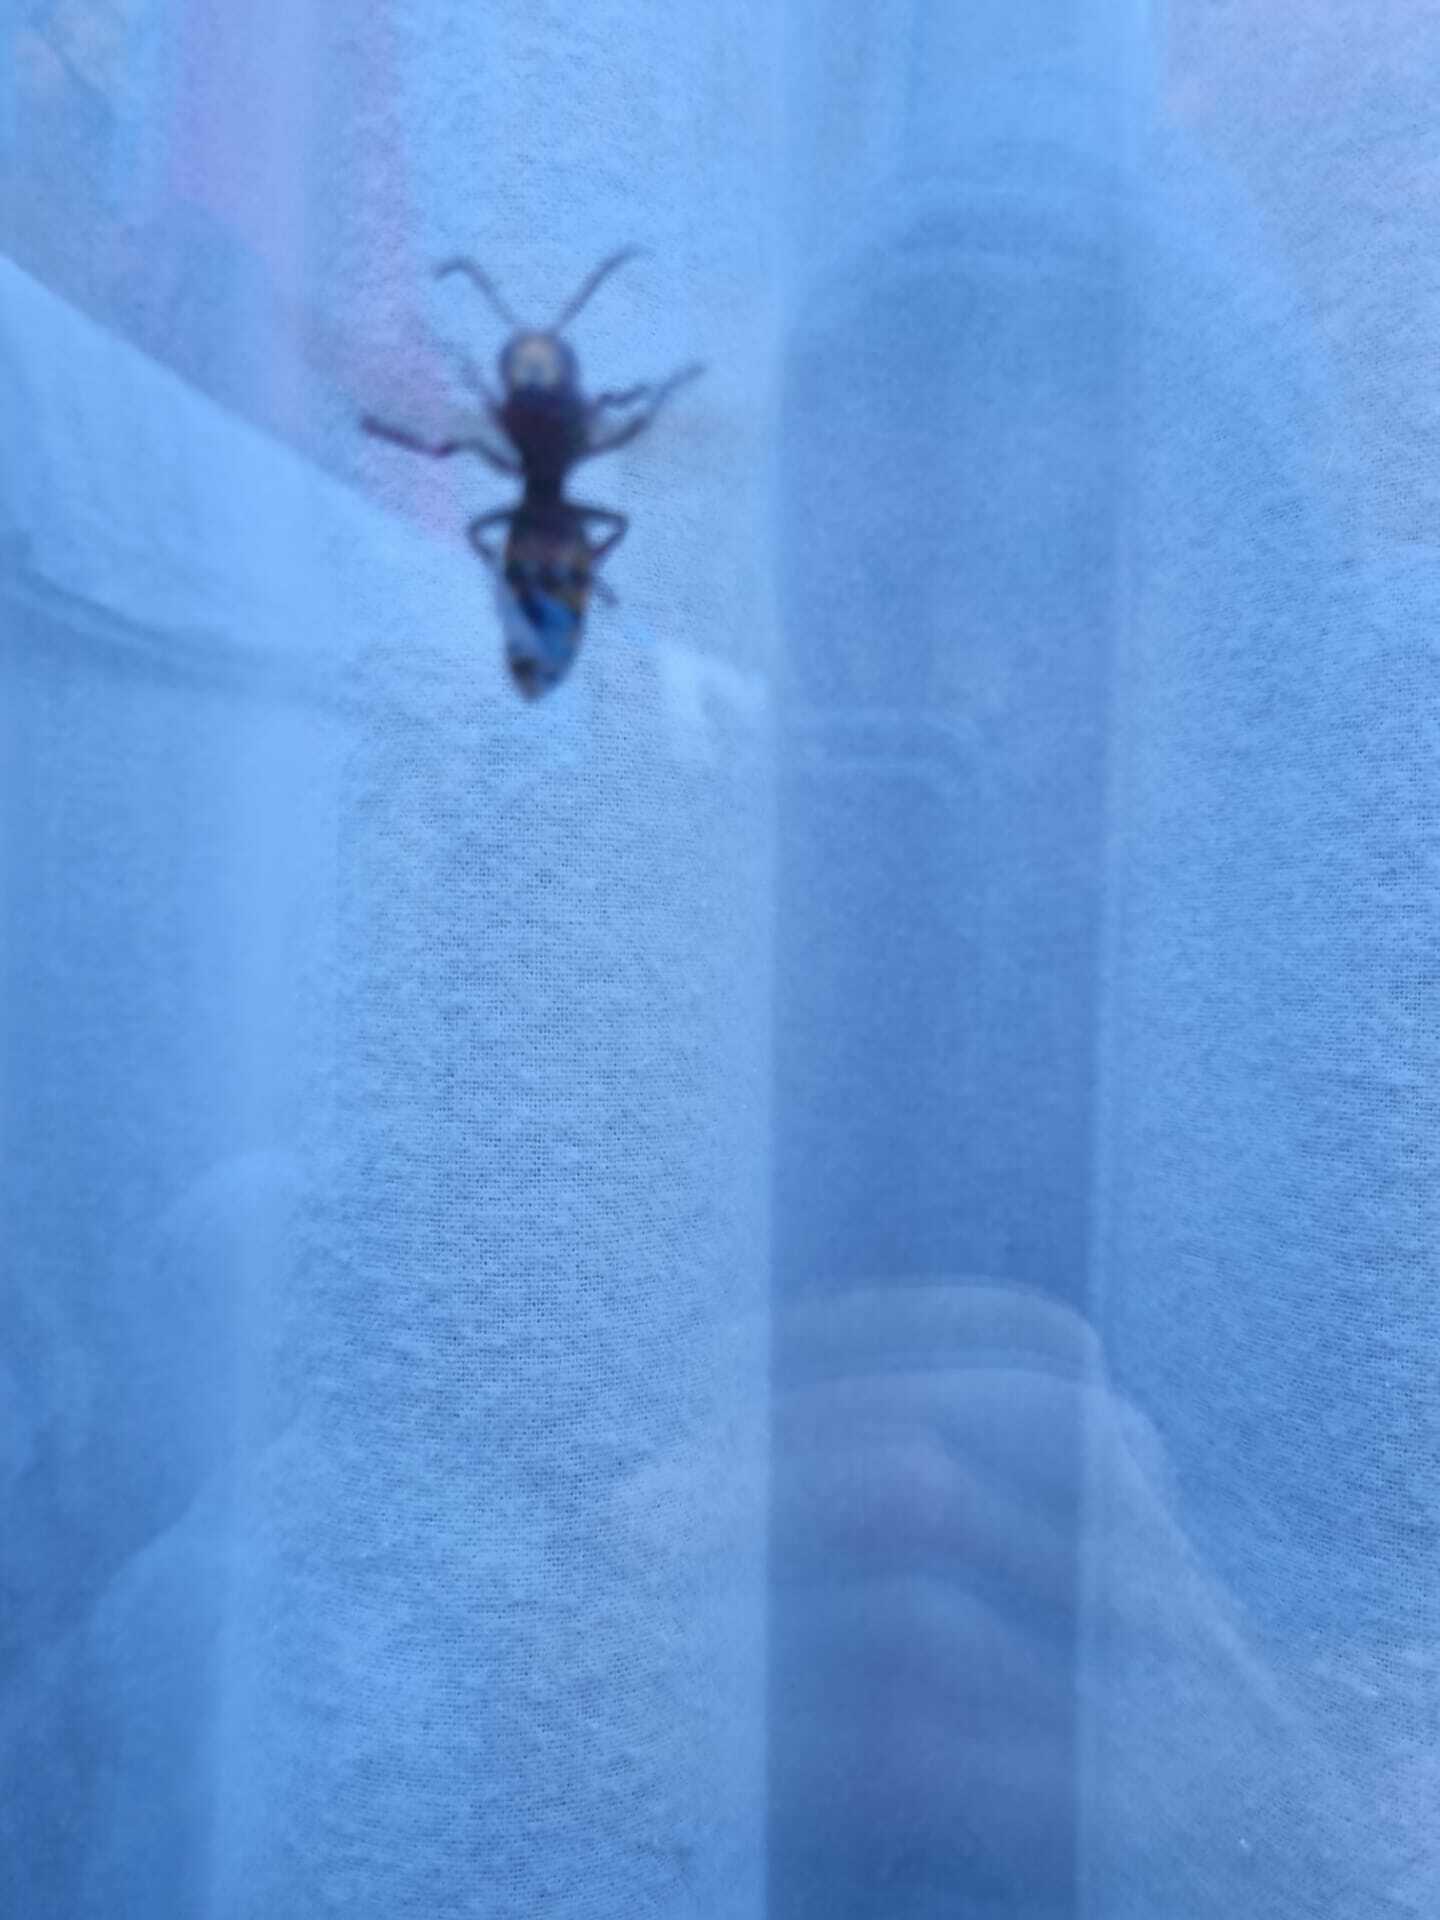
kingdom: Animalia
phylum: Arthropoda
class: Insecta
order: Hymenoptera
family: Vespidae
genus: Vespa
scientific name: Vespa crabro
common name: Hornet
